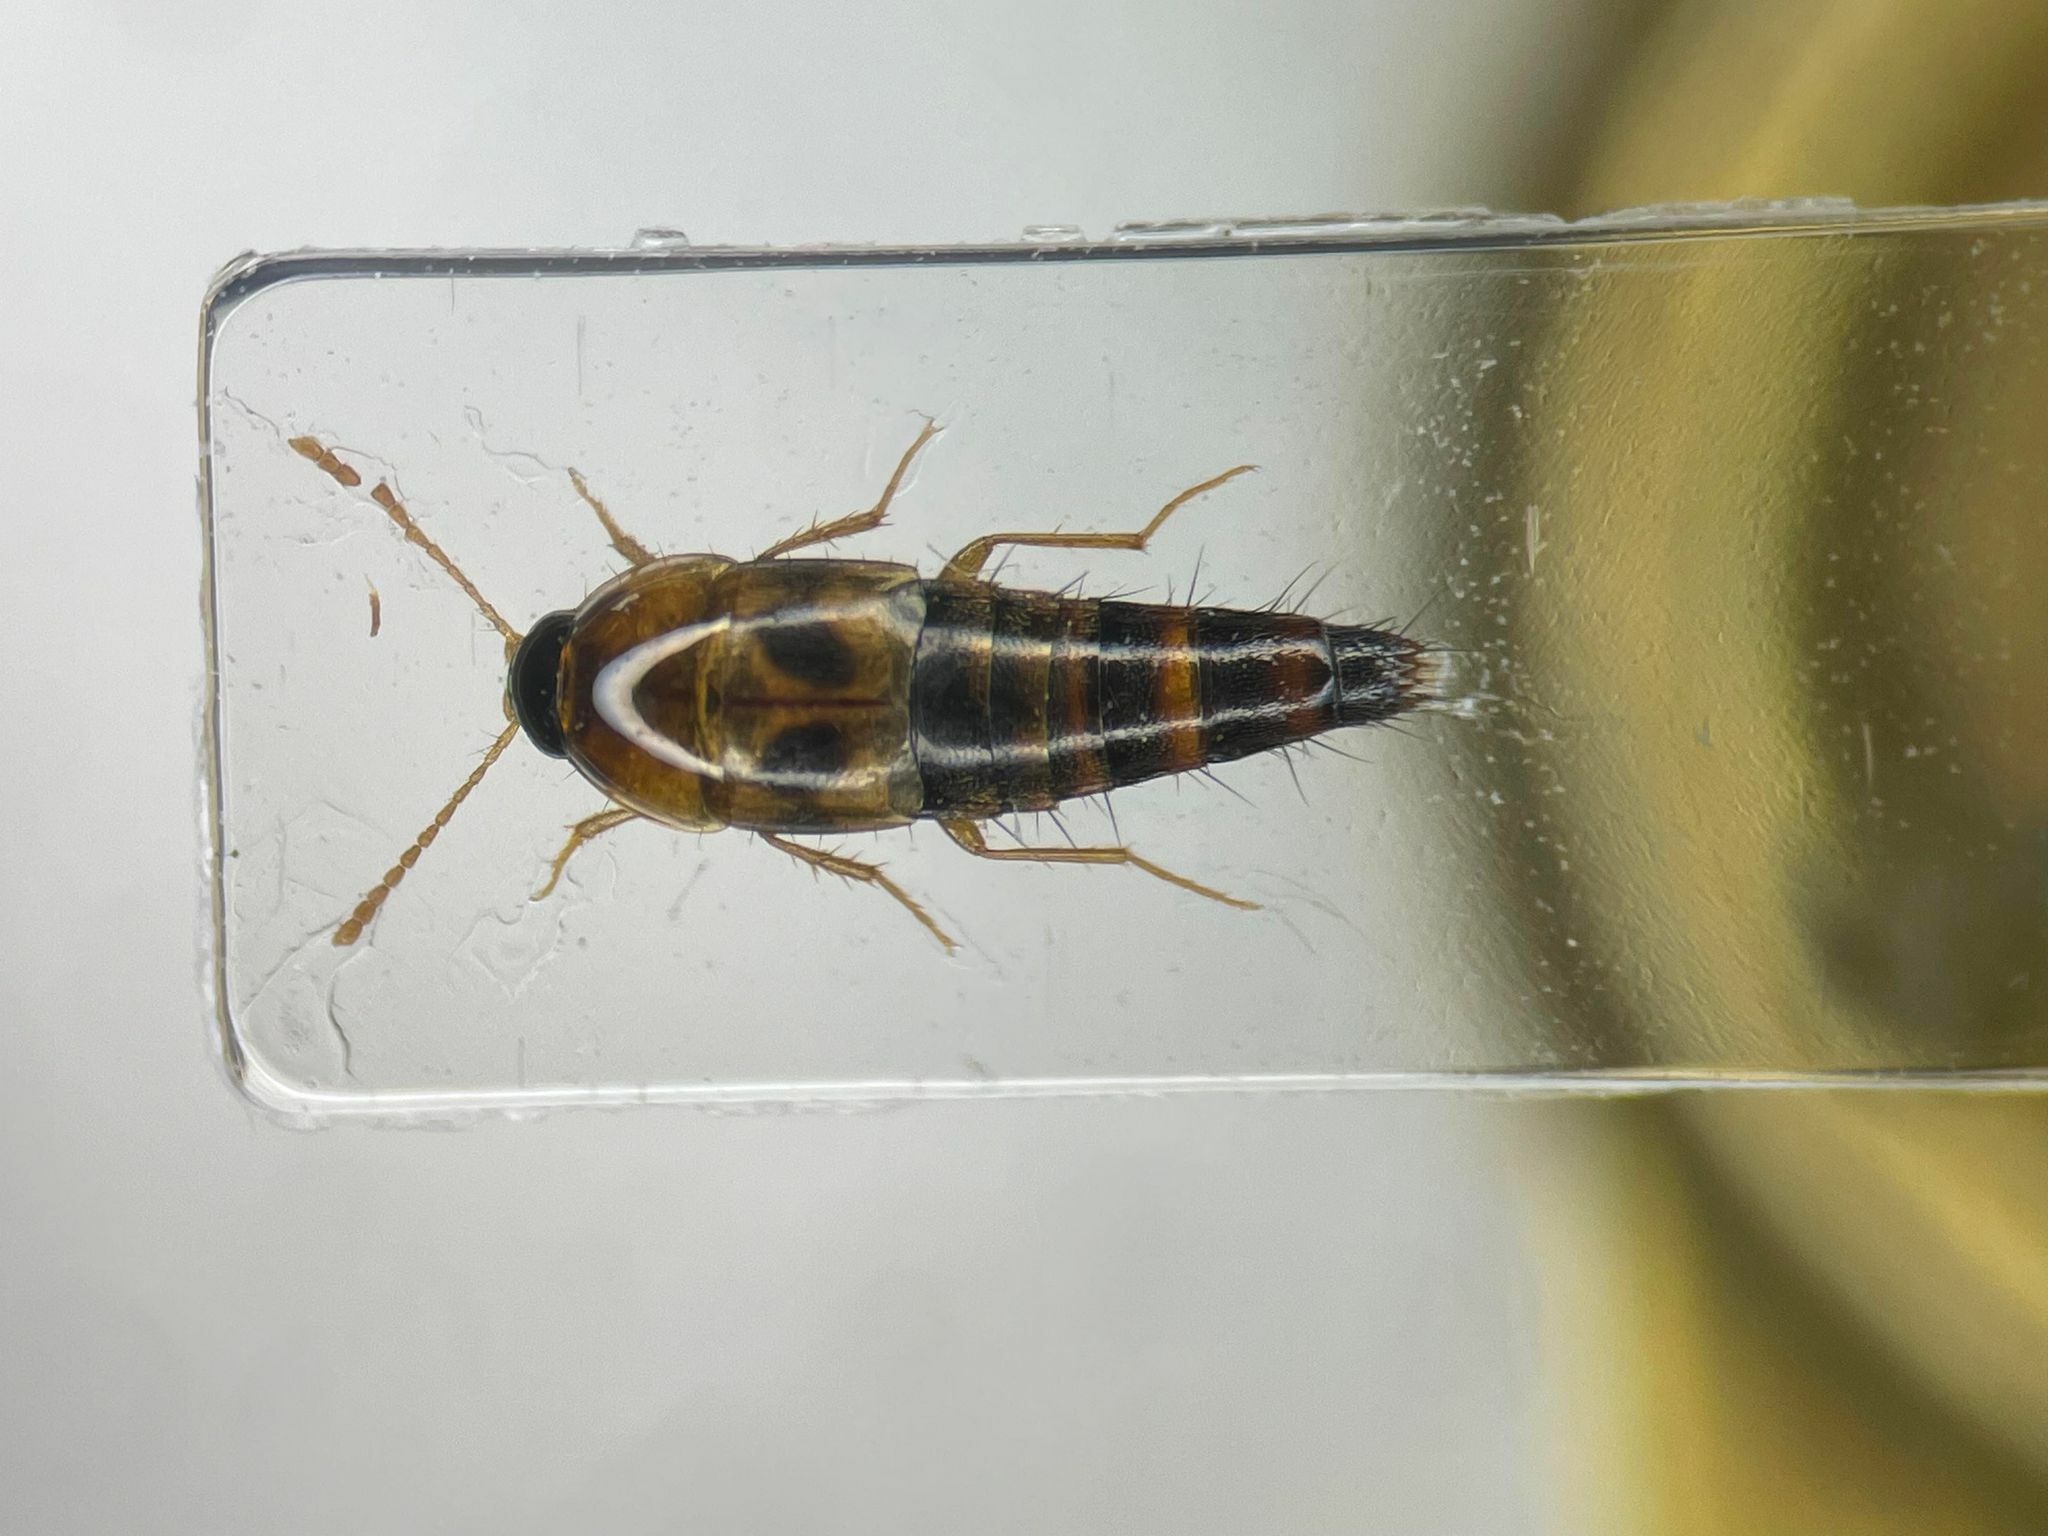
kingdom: Animalia
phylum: Arthropoda
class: Insecta
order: Coleoptera
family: Staphylinidae
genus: Tachyporus
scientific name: Tachyporus lecontei
